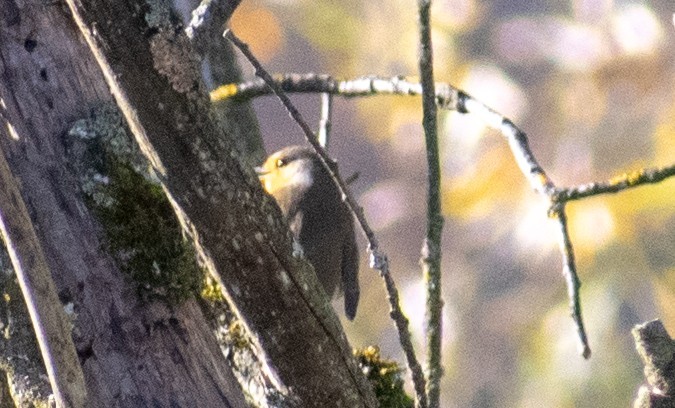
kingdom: Animalia
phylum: Chordata
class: Aves
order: Passeriformes
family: Muscicapidae
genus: Erithacus
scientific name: Erithacus rubecula
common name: European robin
